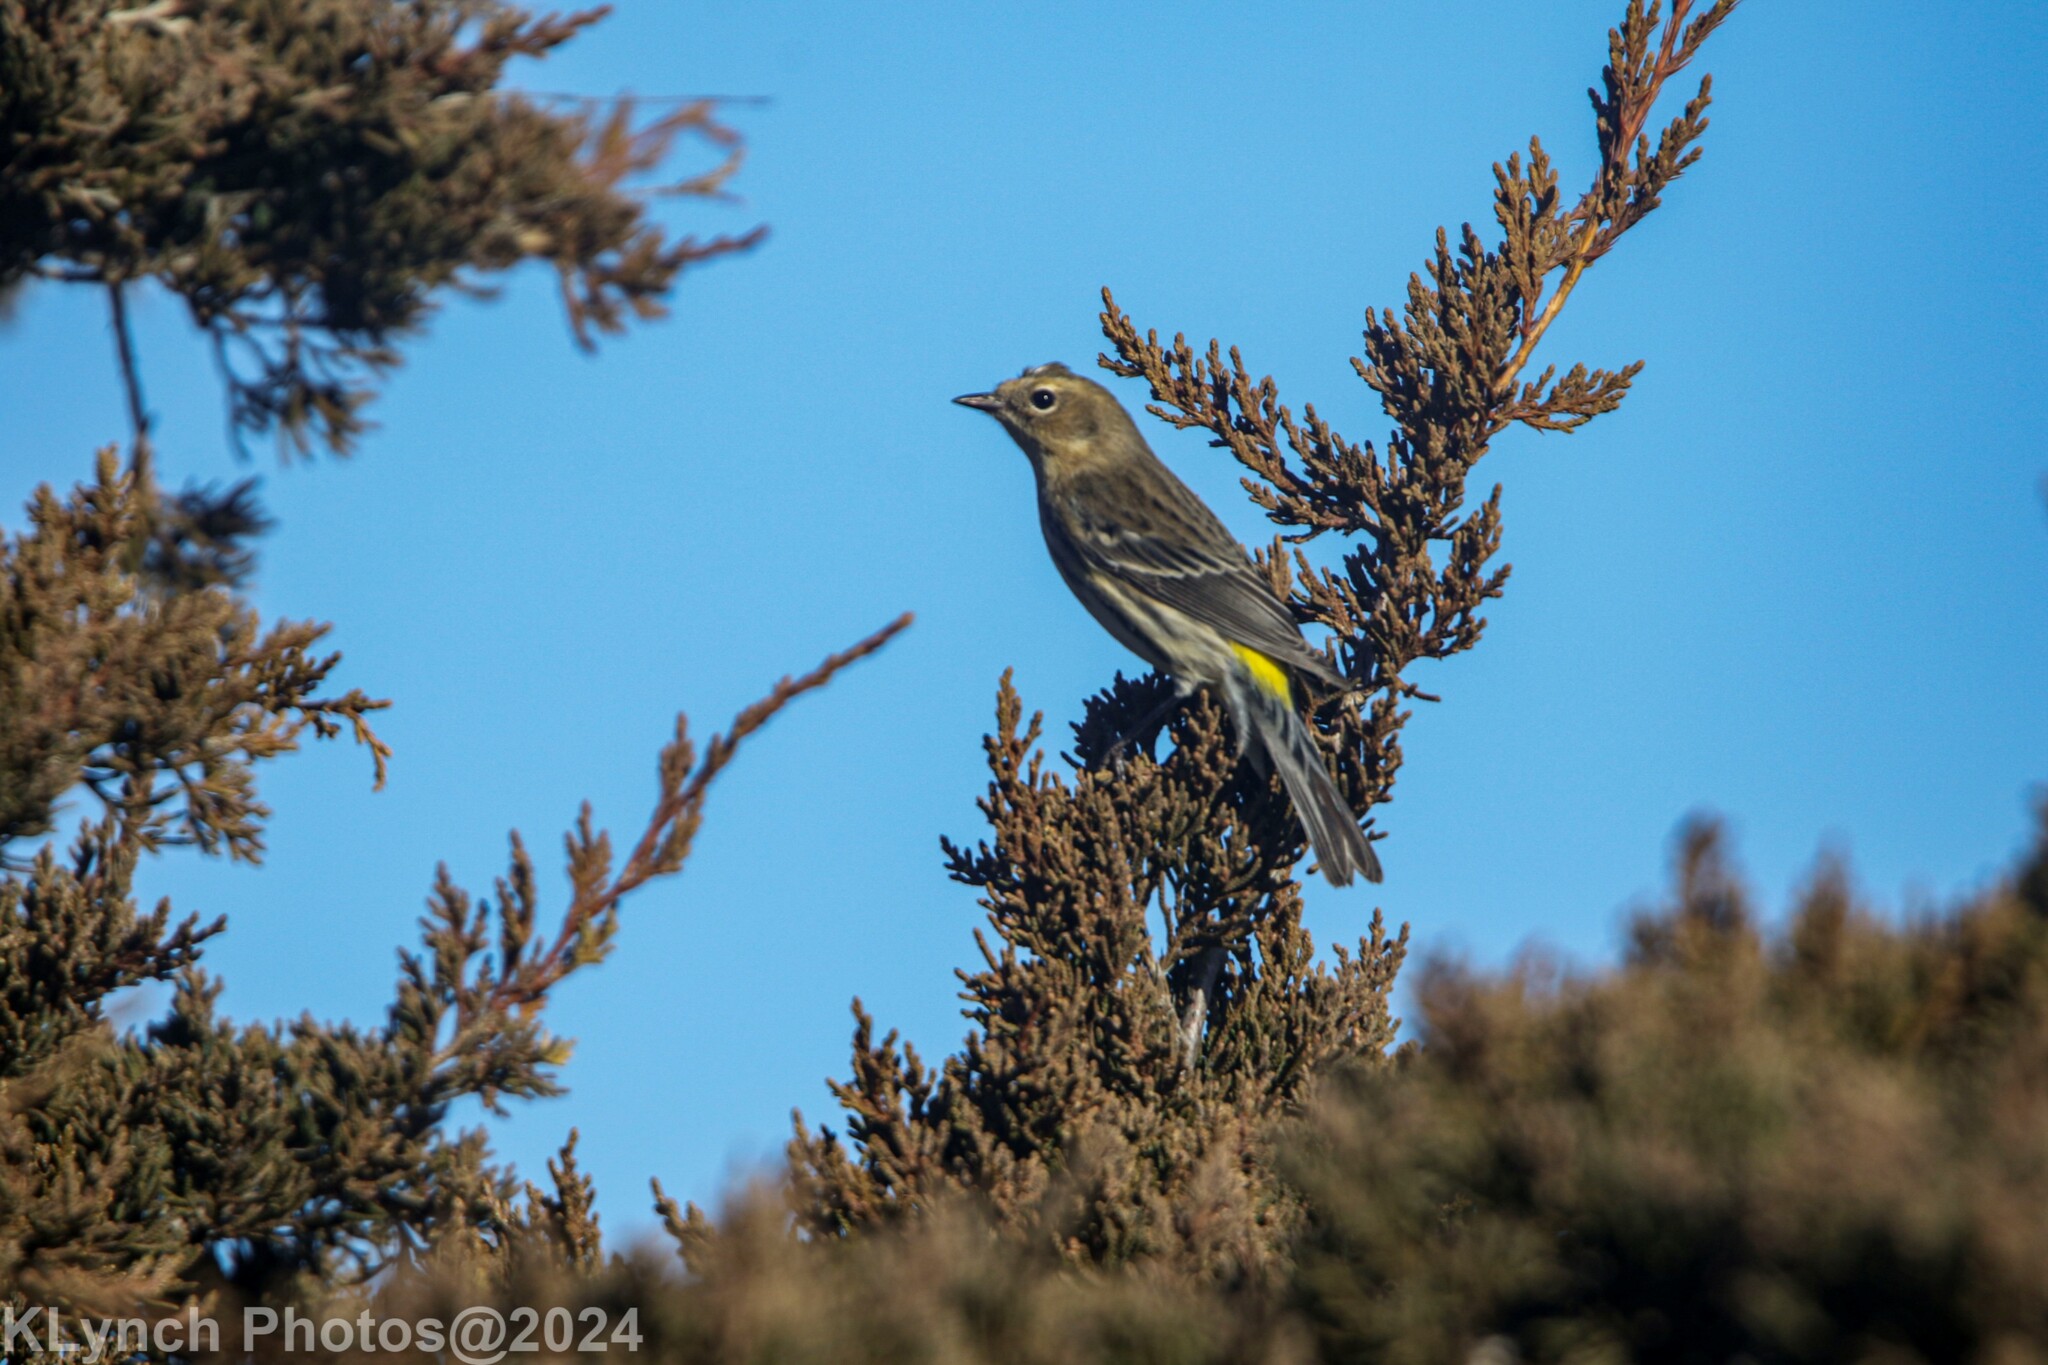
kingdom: Animalia
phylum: Chordata
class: Aves
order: Passeriformes
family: Parulidae
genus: Setophaga
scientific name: Setophaga coronata
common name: Myrtle warbler
